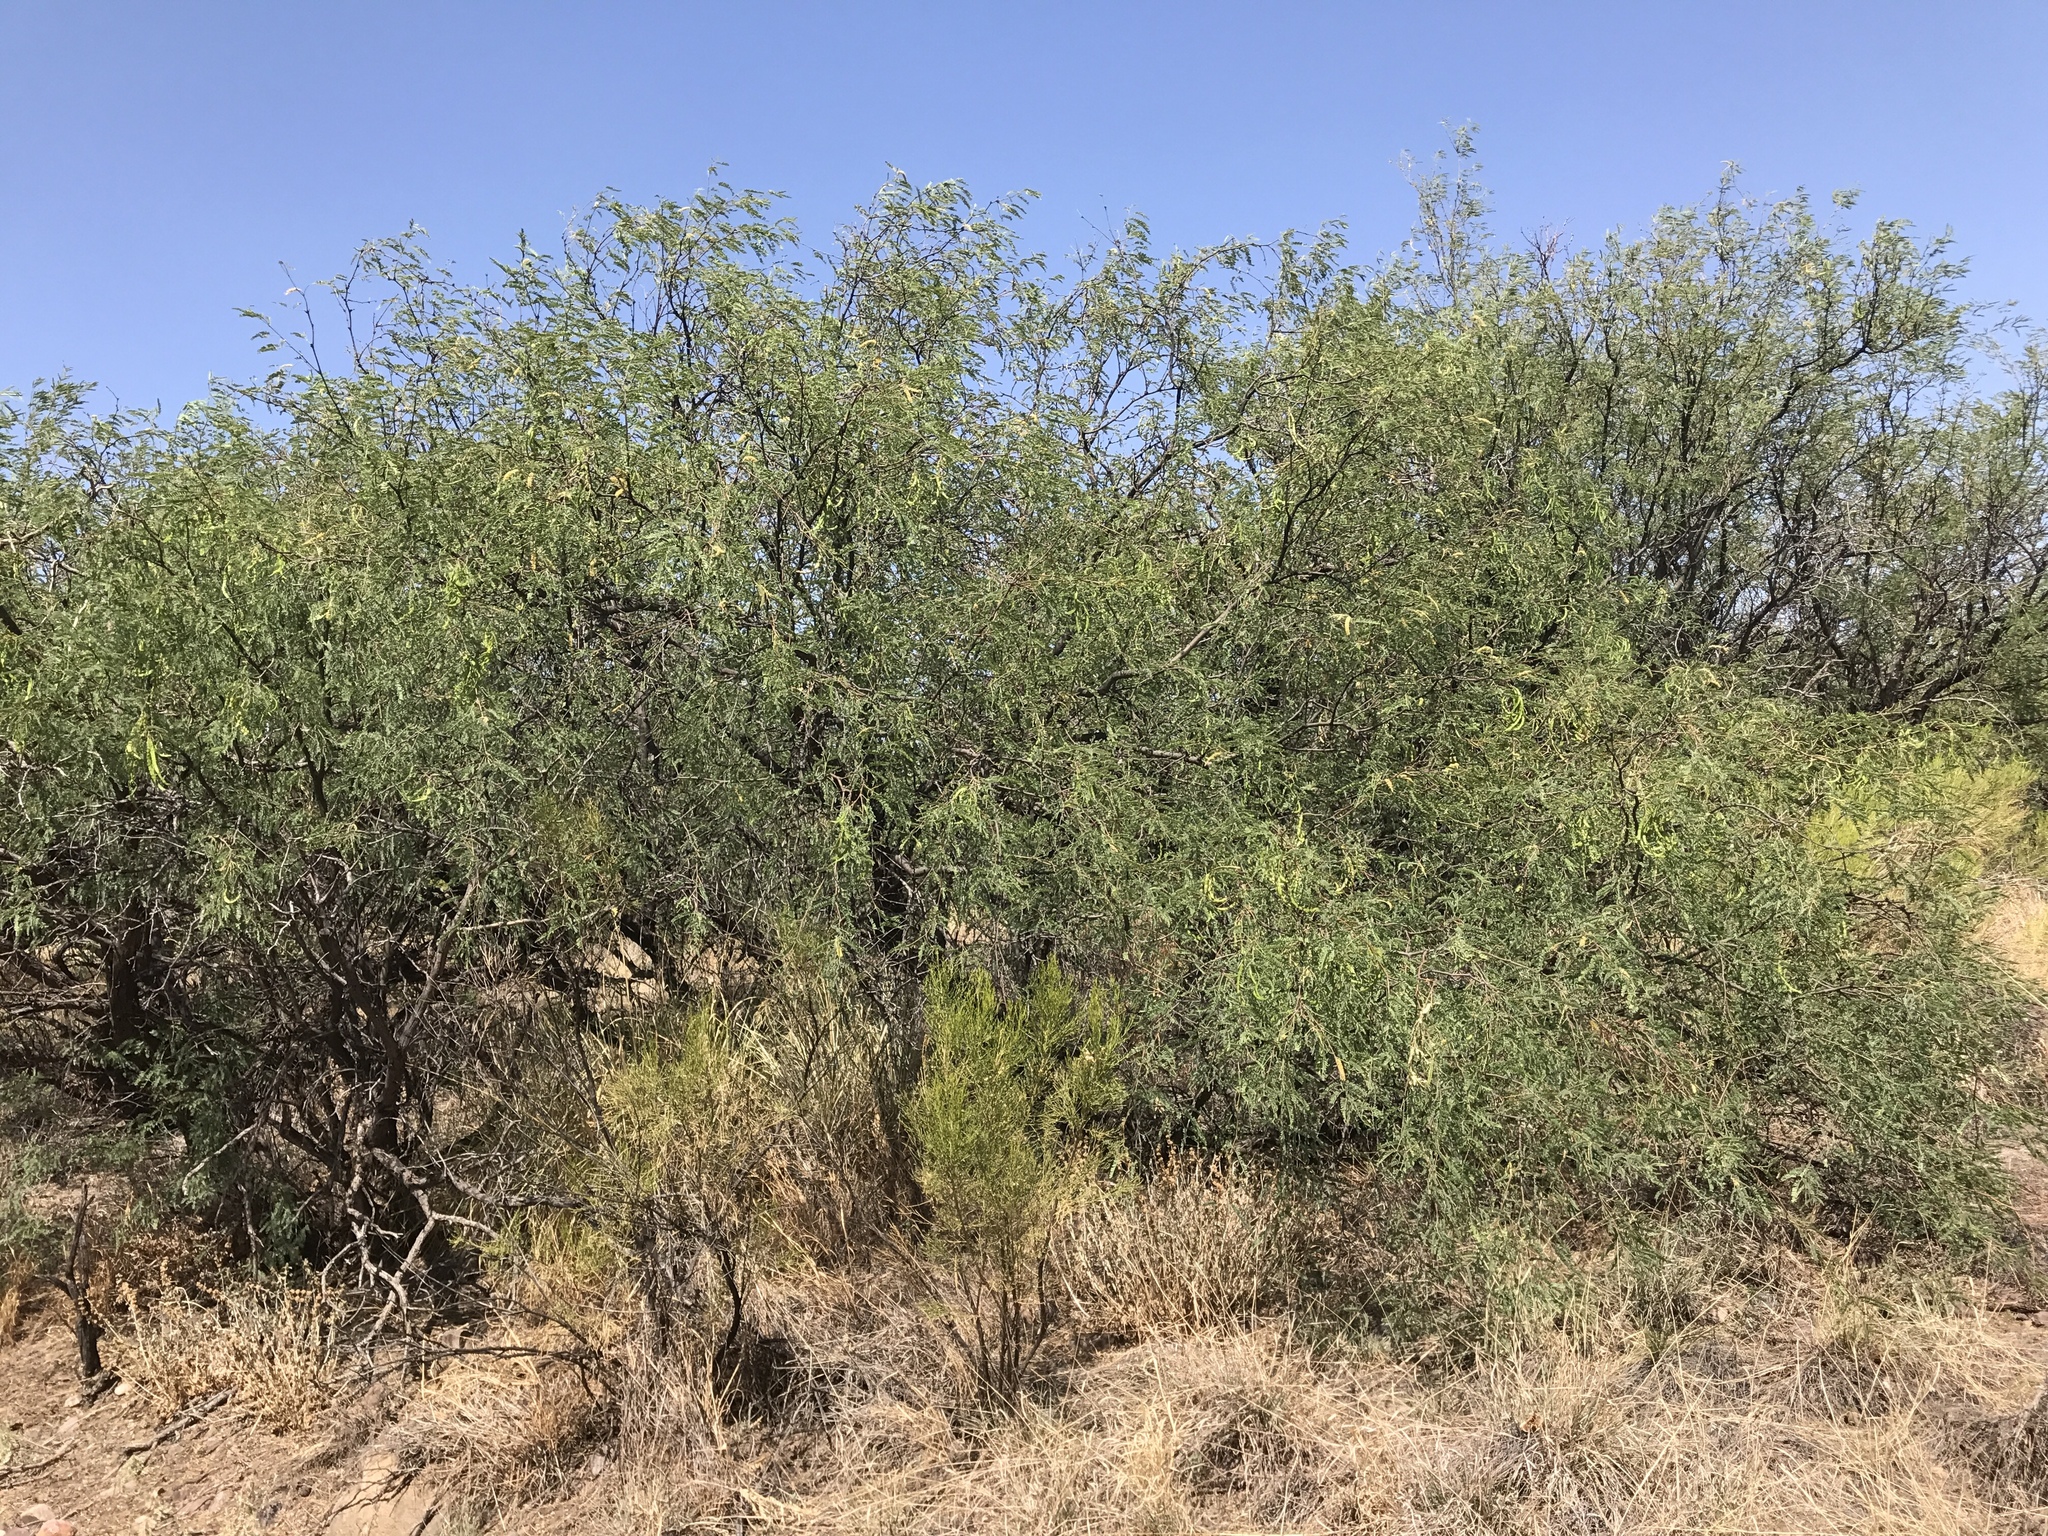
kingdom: Plantae
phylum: Tracheophyta
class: Magnoliopsida
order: Fabales
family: Fabaceae
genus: Prosopis
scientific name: Prosopis velutina
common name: Velvet mesquite
